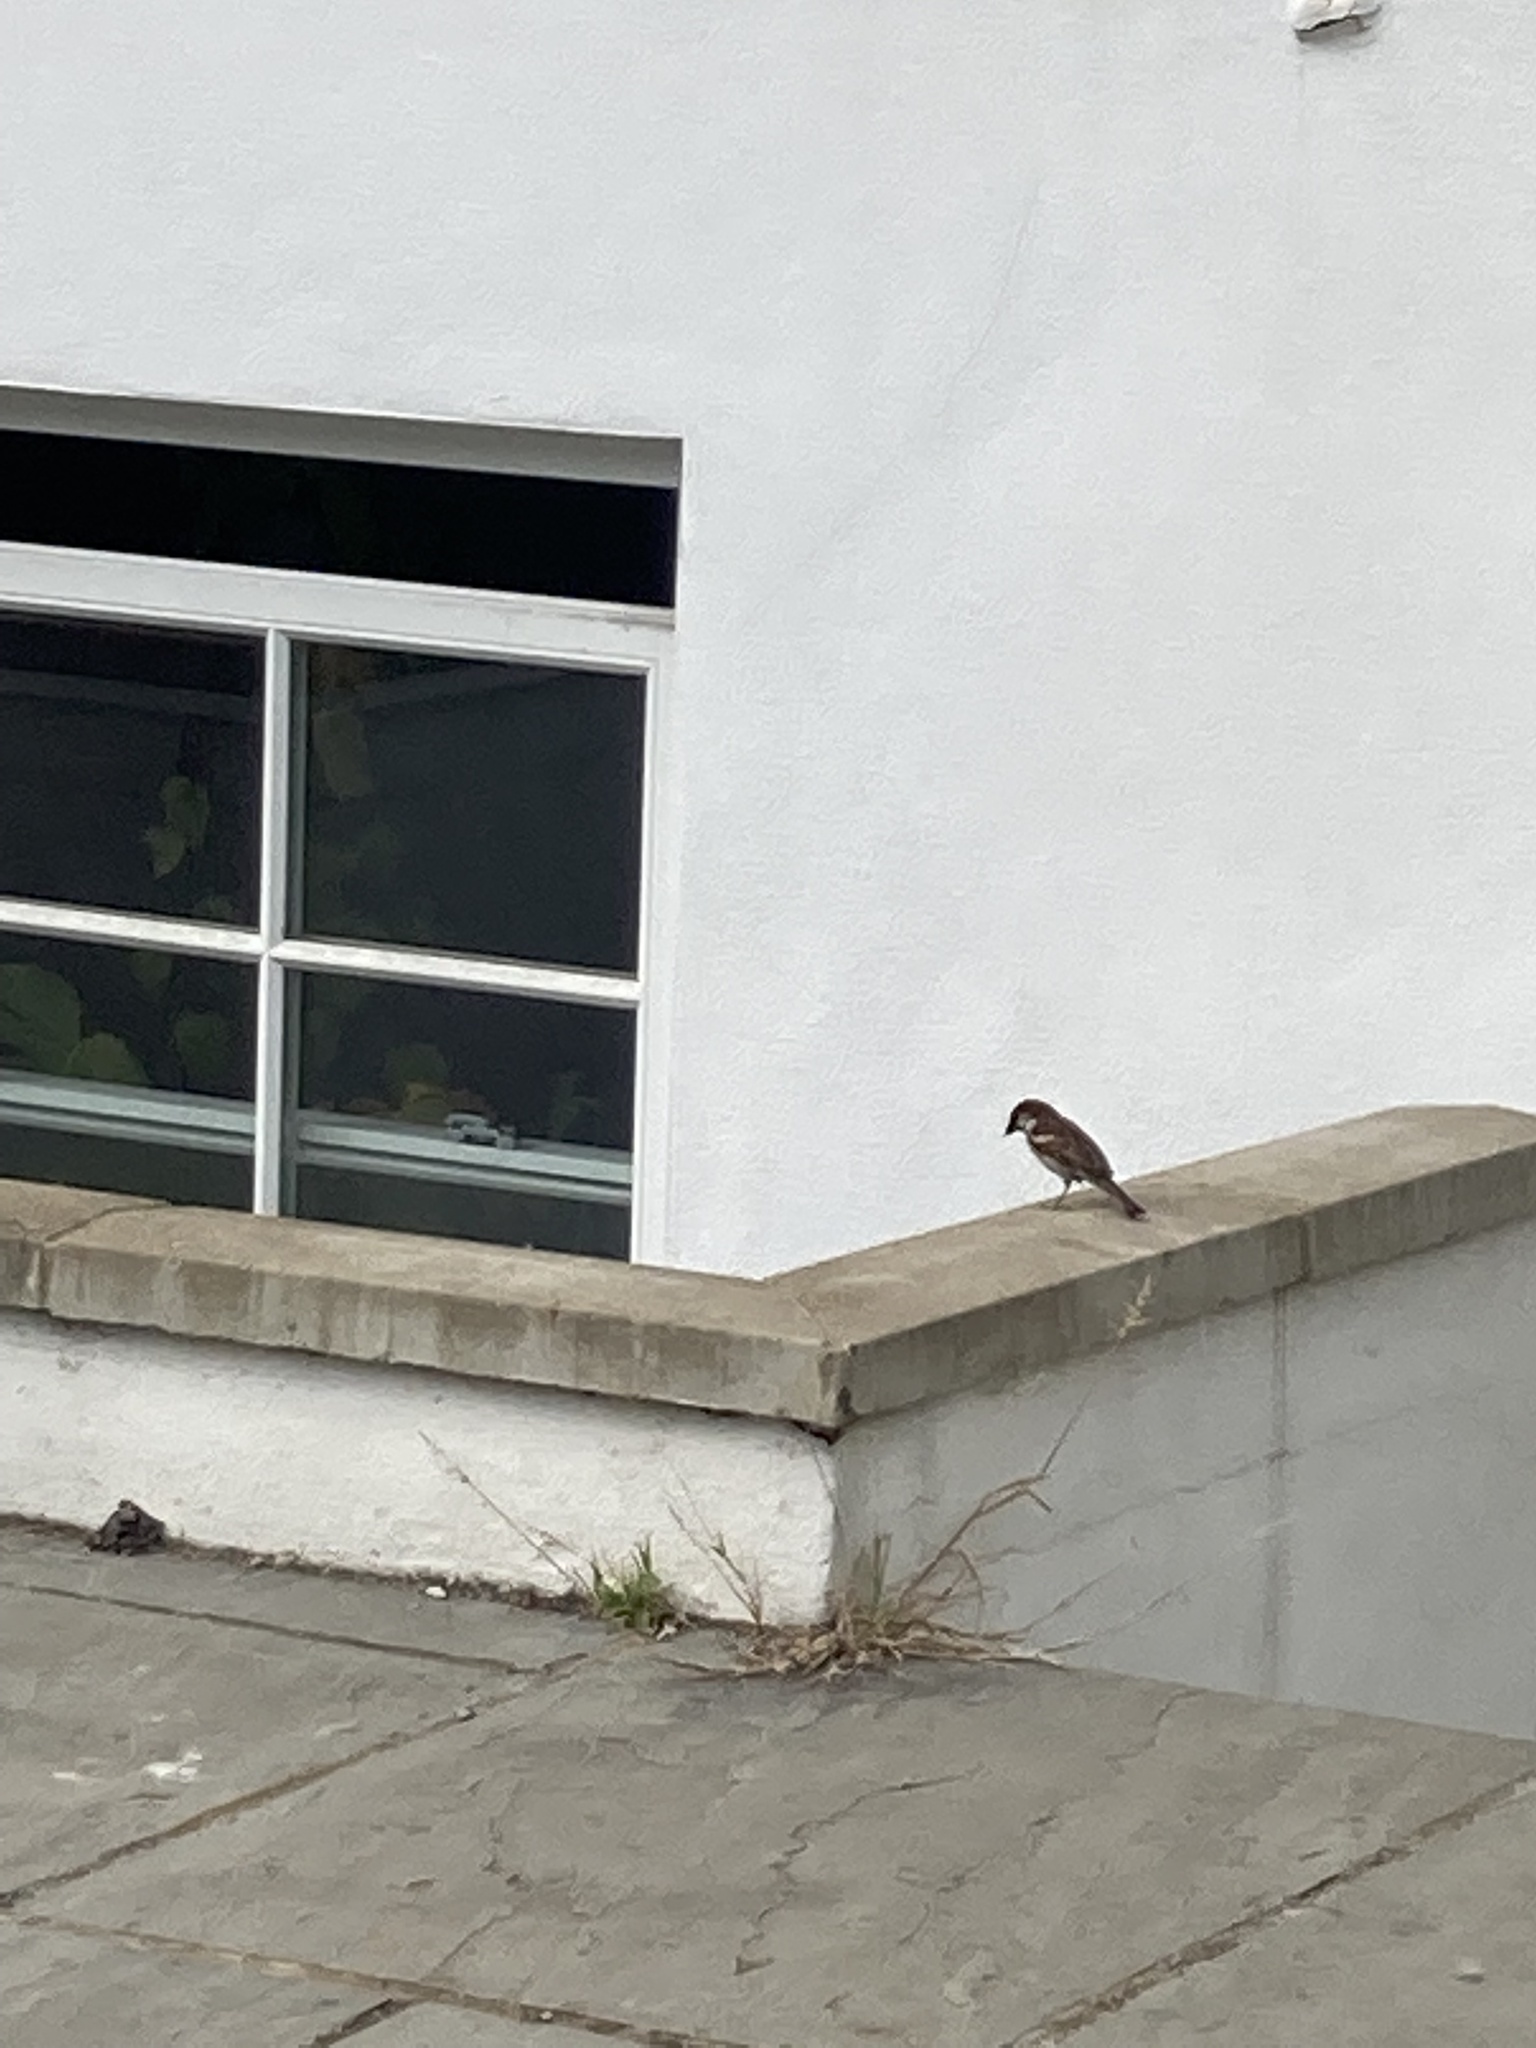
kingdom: Animalia
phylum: Chordata
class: Aves
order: Passeriformes
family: Passeridae
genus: Passer
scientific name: Passer domesticus
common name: House sparrow
